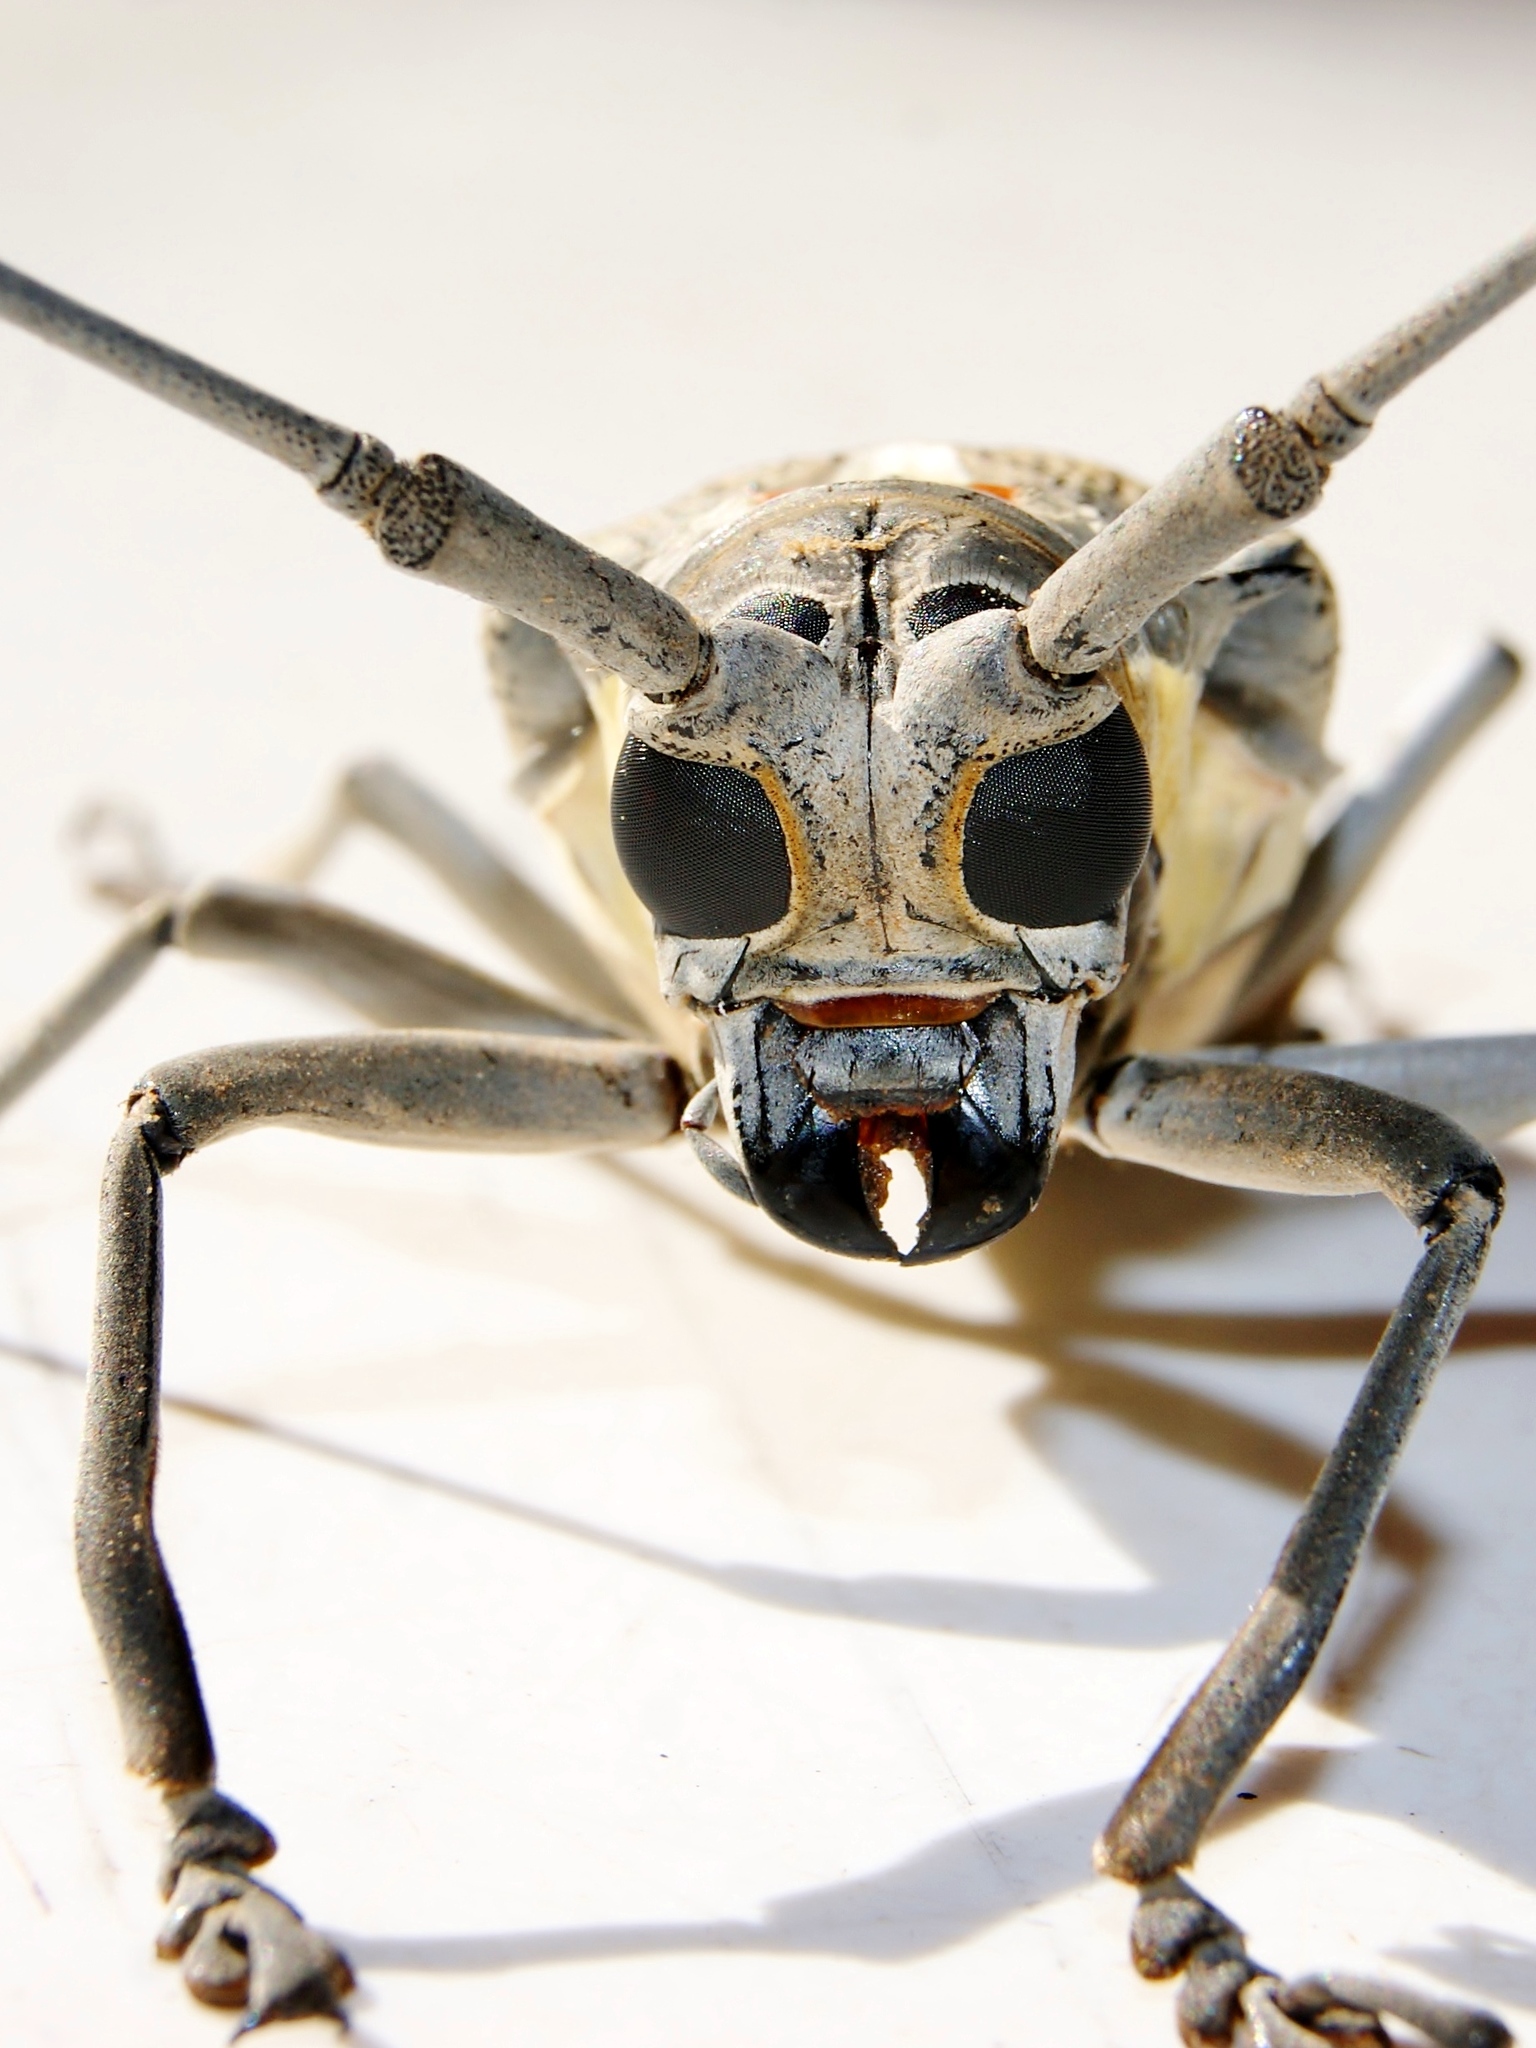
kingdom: Animalia
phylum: Arthropoda
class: Insecta
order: Coleoptera
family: Cerambycidae
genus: Batocera
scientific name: Batocera rufomaculata
